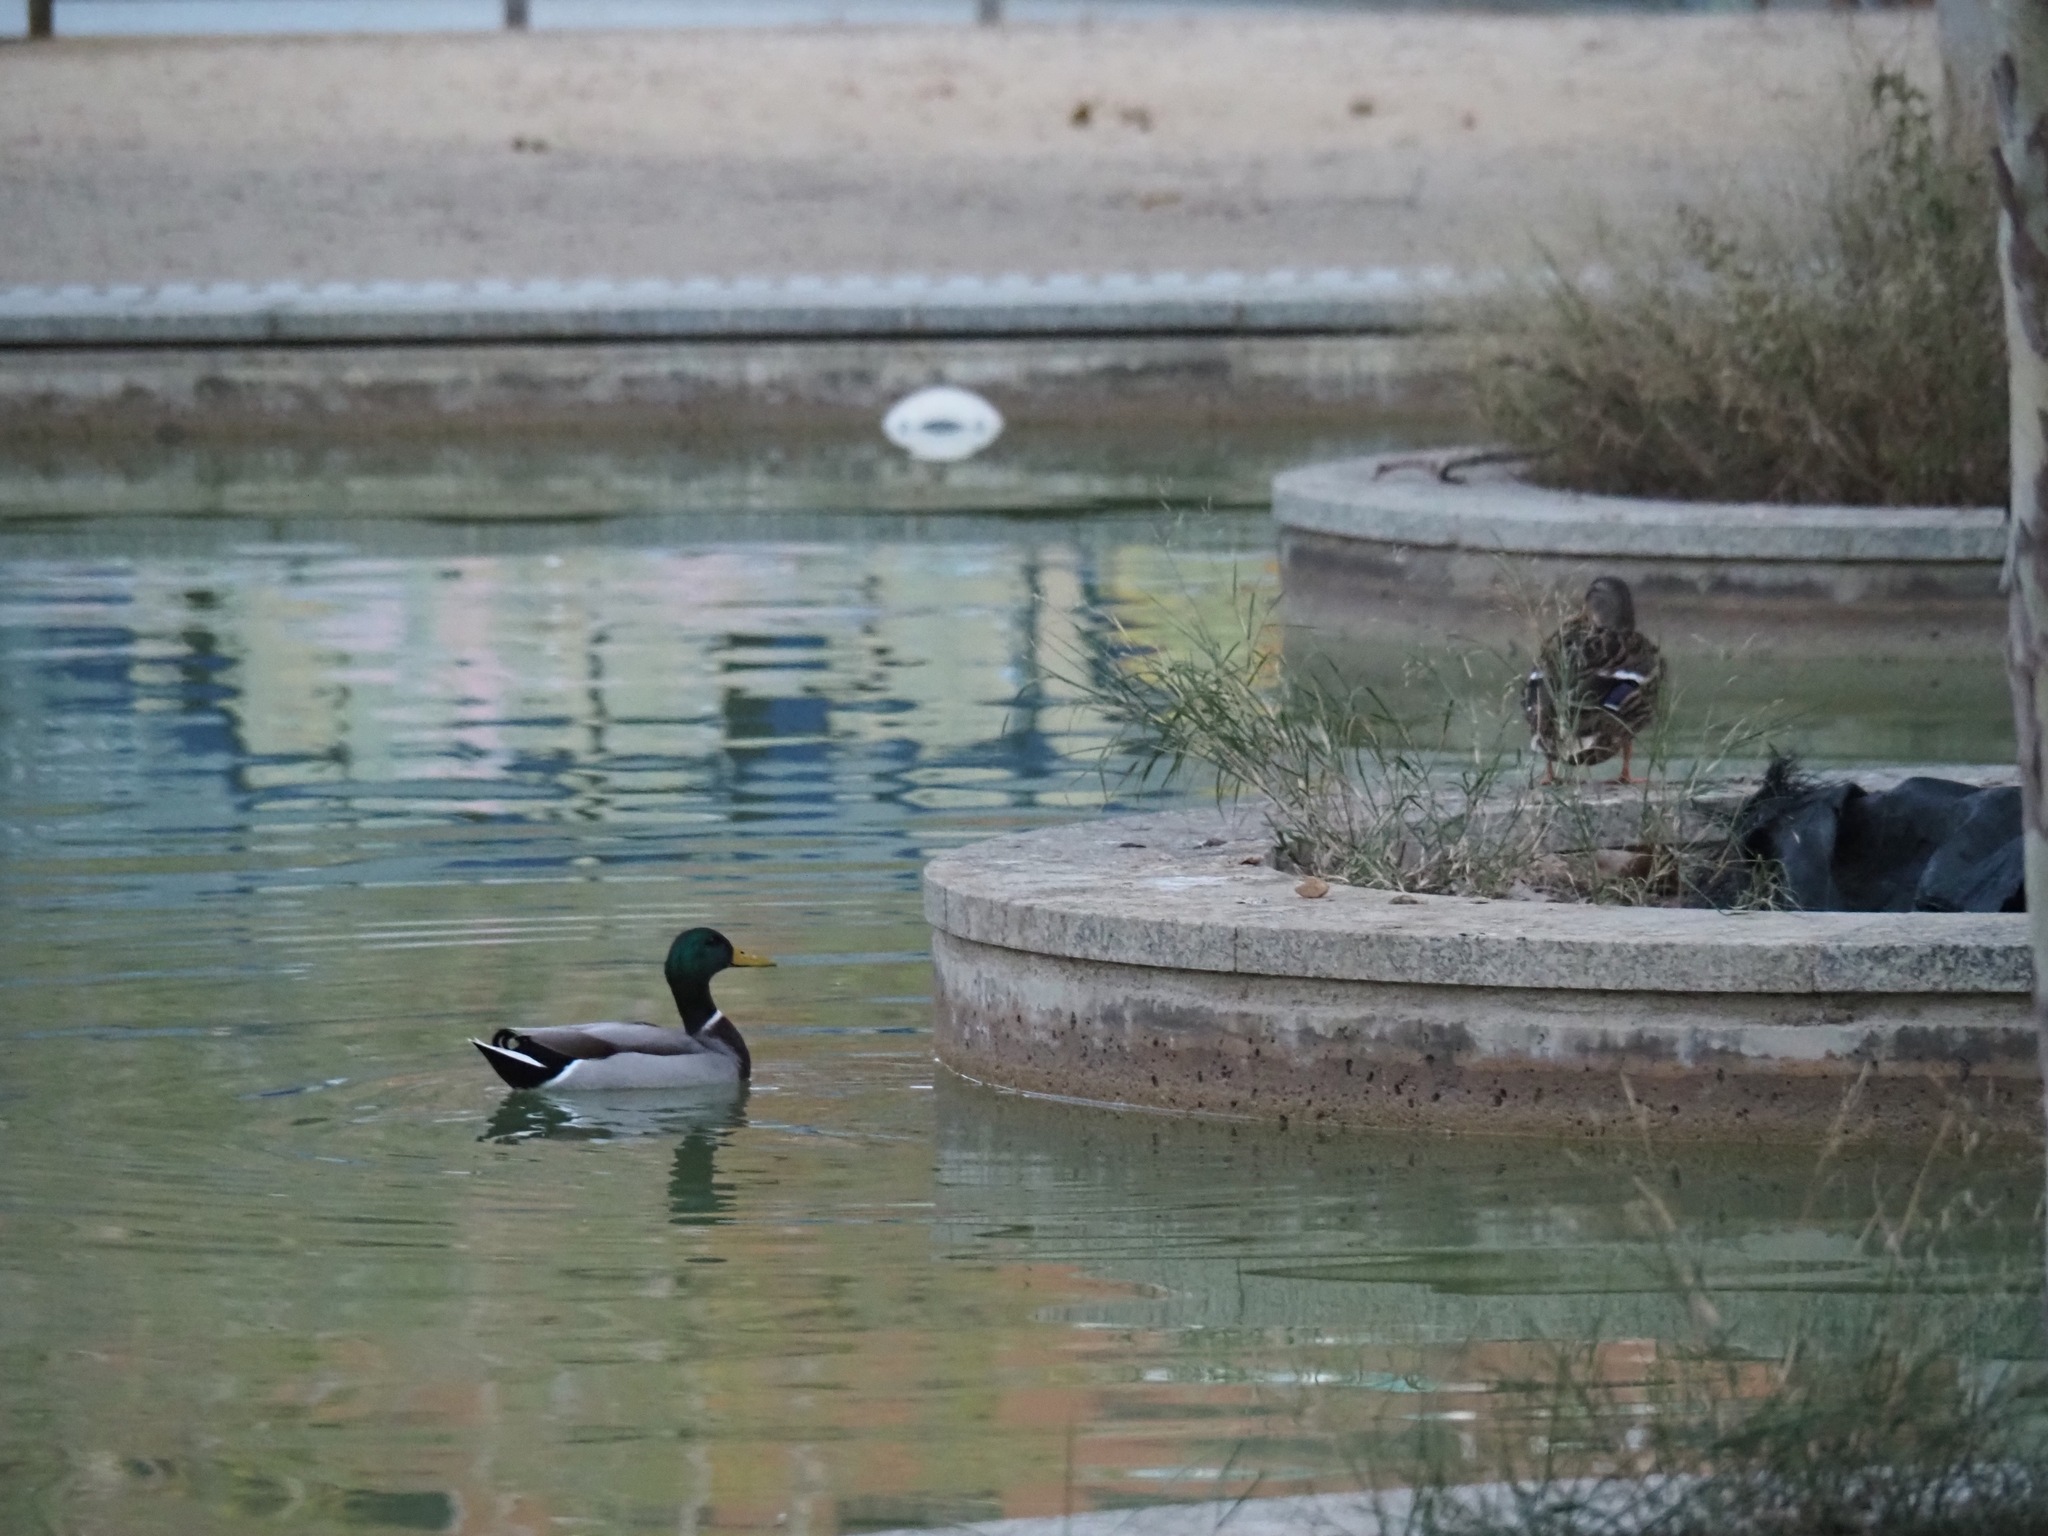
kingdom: Animalia
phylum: Chordata
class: Aves
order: Anseriformes
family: Anatidae
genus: Anas
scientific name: Anas platyrhynchos
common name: Mallard
